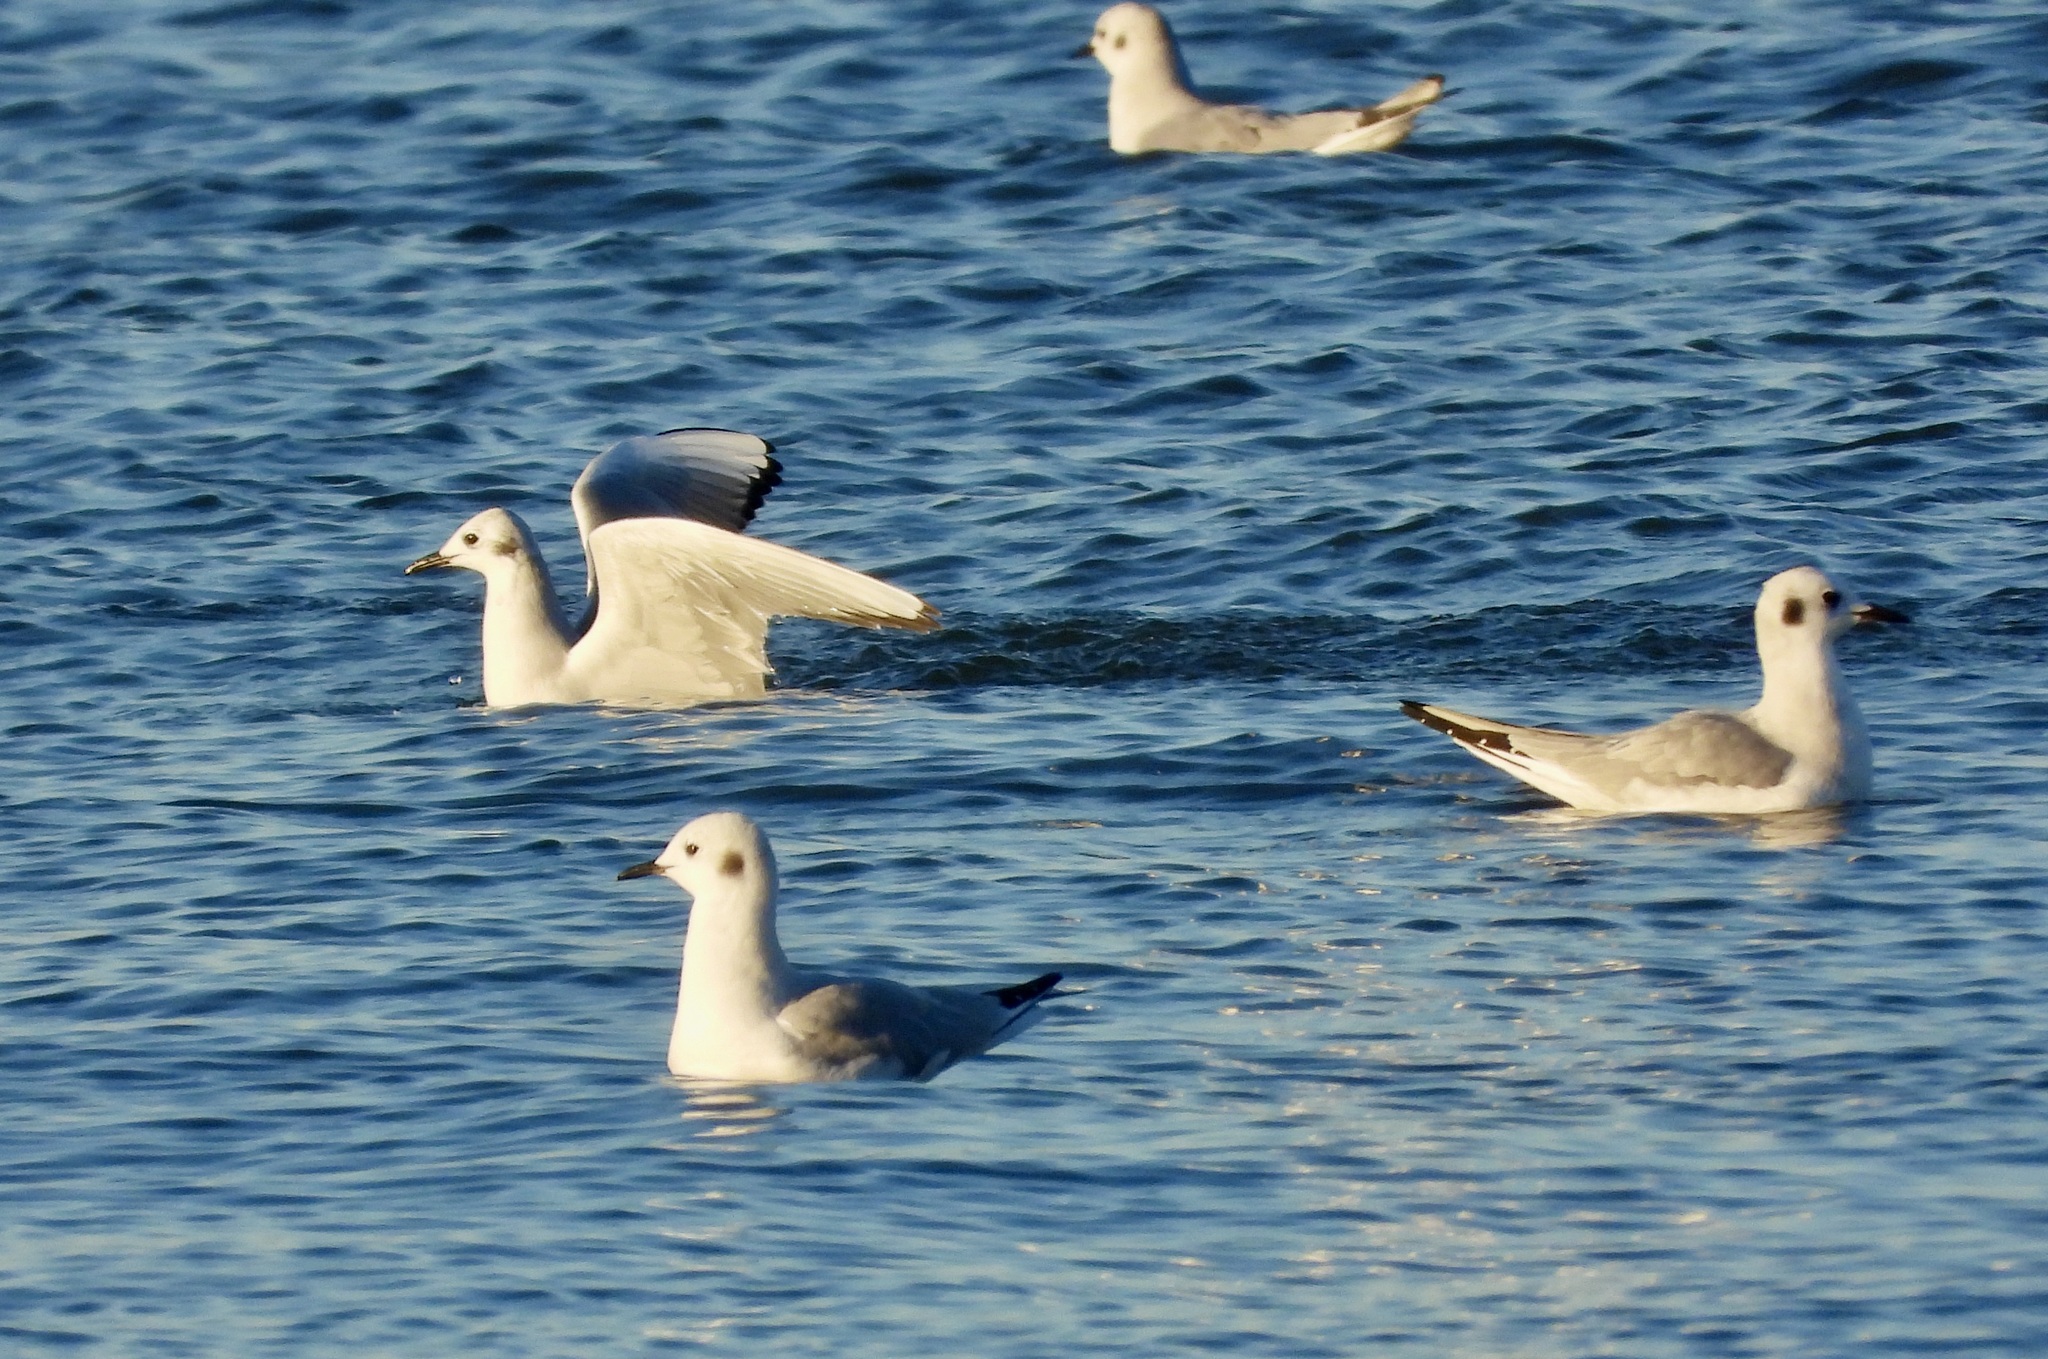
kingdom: Animalia
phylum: Chordata
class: Aves
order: Charadriiformes
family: Laridae
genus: Chroicocephalus
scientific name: Chroicocephalus philadelphia
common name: Bonaparte's gull
